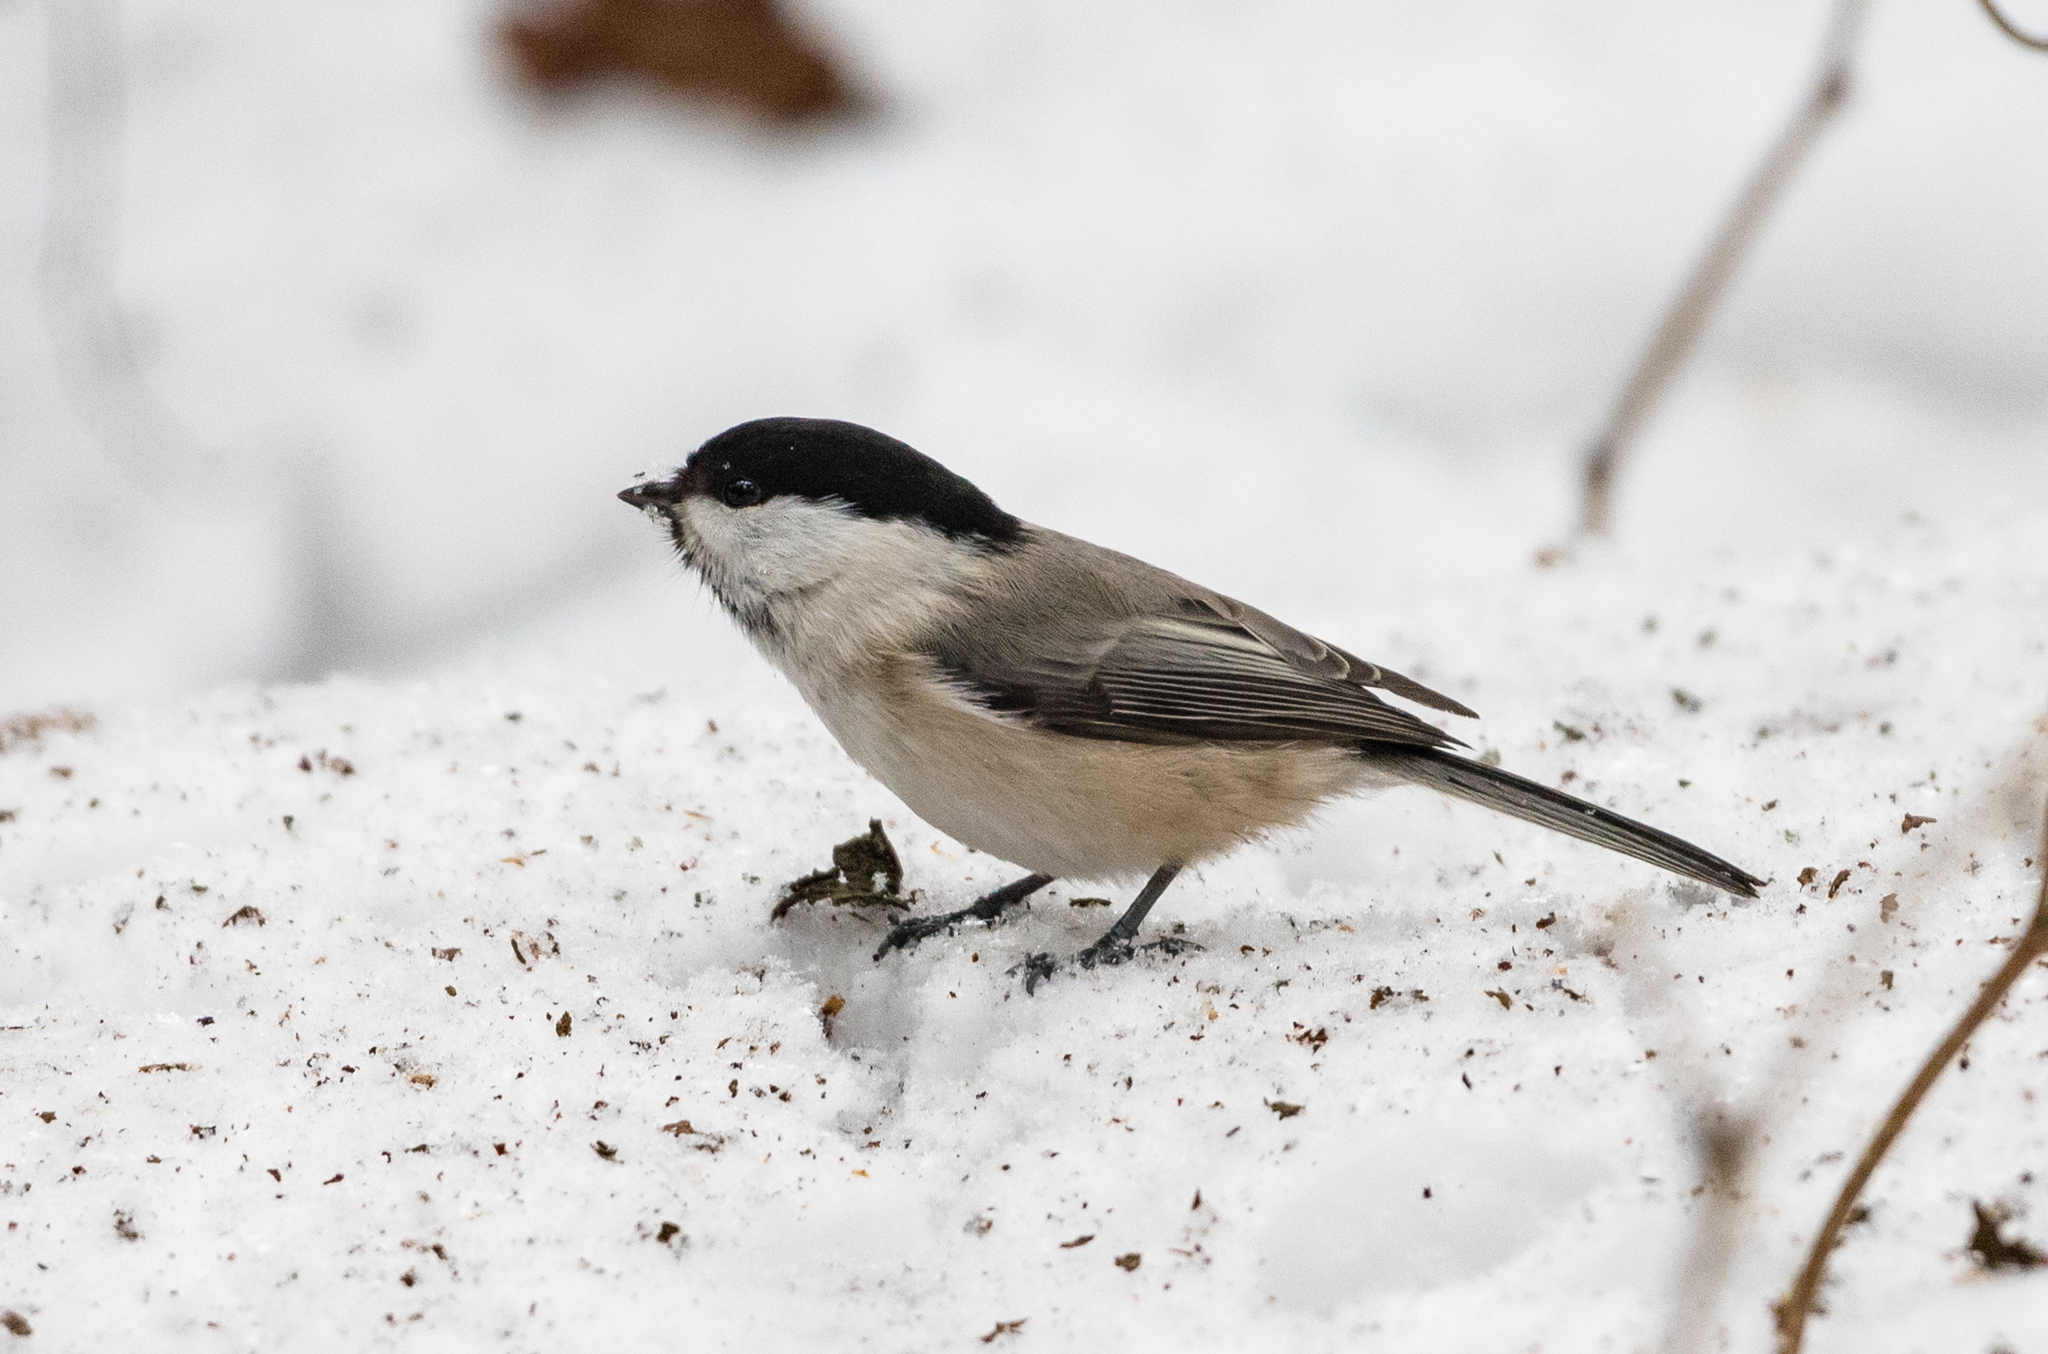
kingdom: Animalia
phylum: Chordata
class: Aves
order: Passeriformes
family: Paridae
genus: Poecile
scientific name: Poecile montanus
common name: Willow tit
